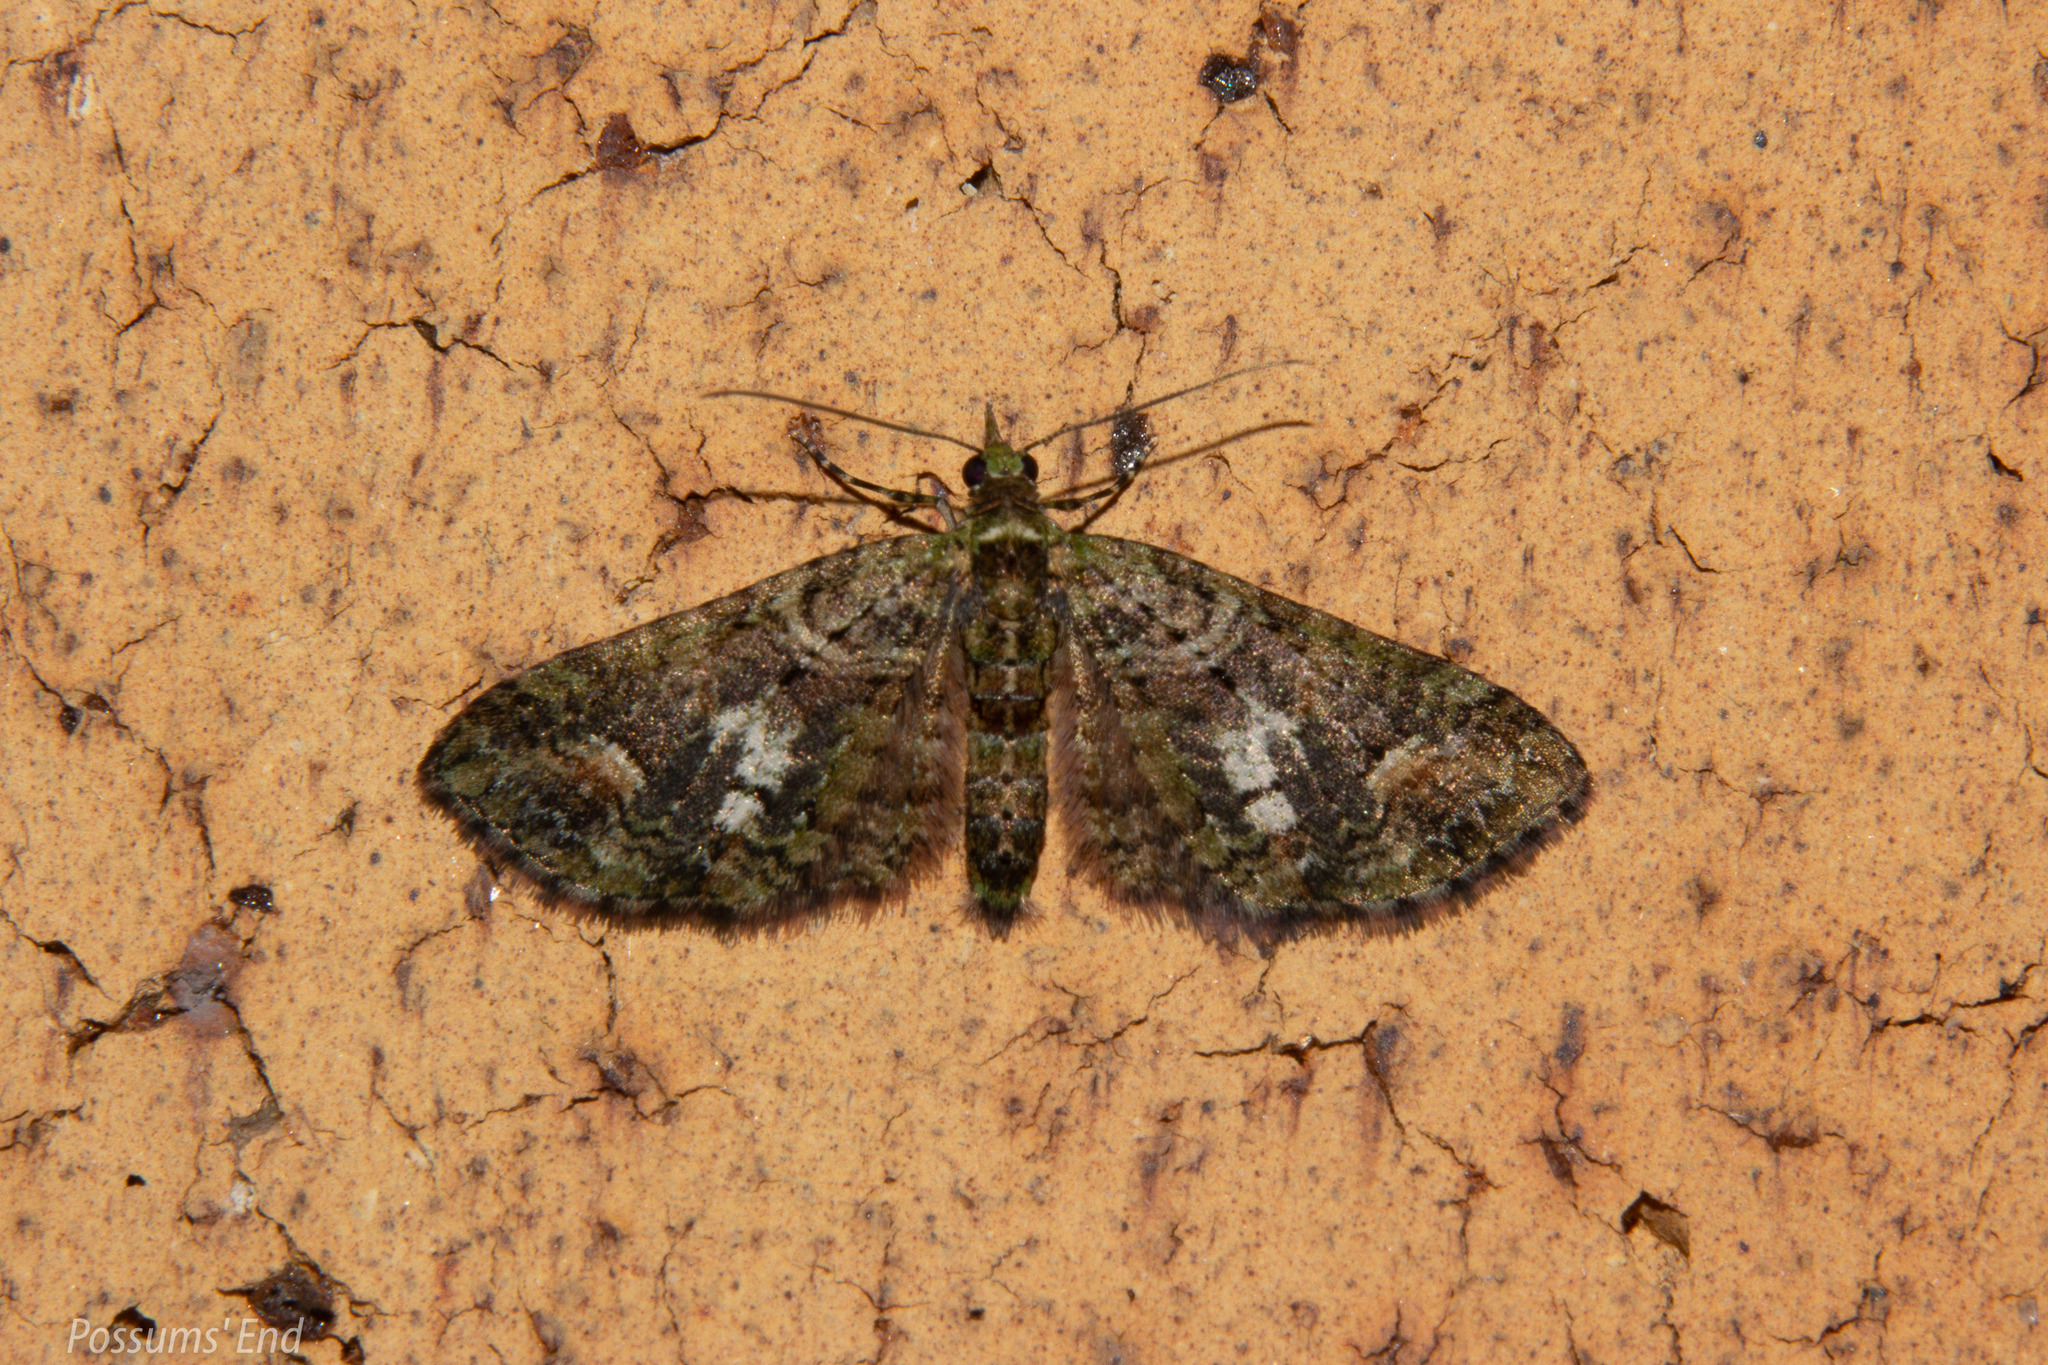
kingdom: Animalia
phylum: Arthropoda
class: Insecta
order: Lepidoptera
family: Geometridae
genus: Idaea
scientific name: Idaea mutanda
